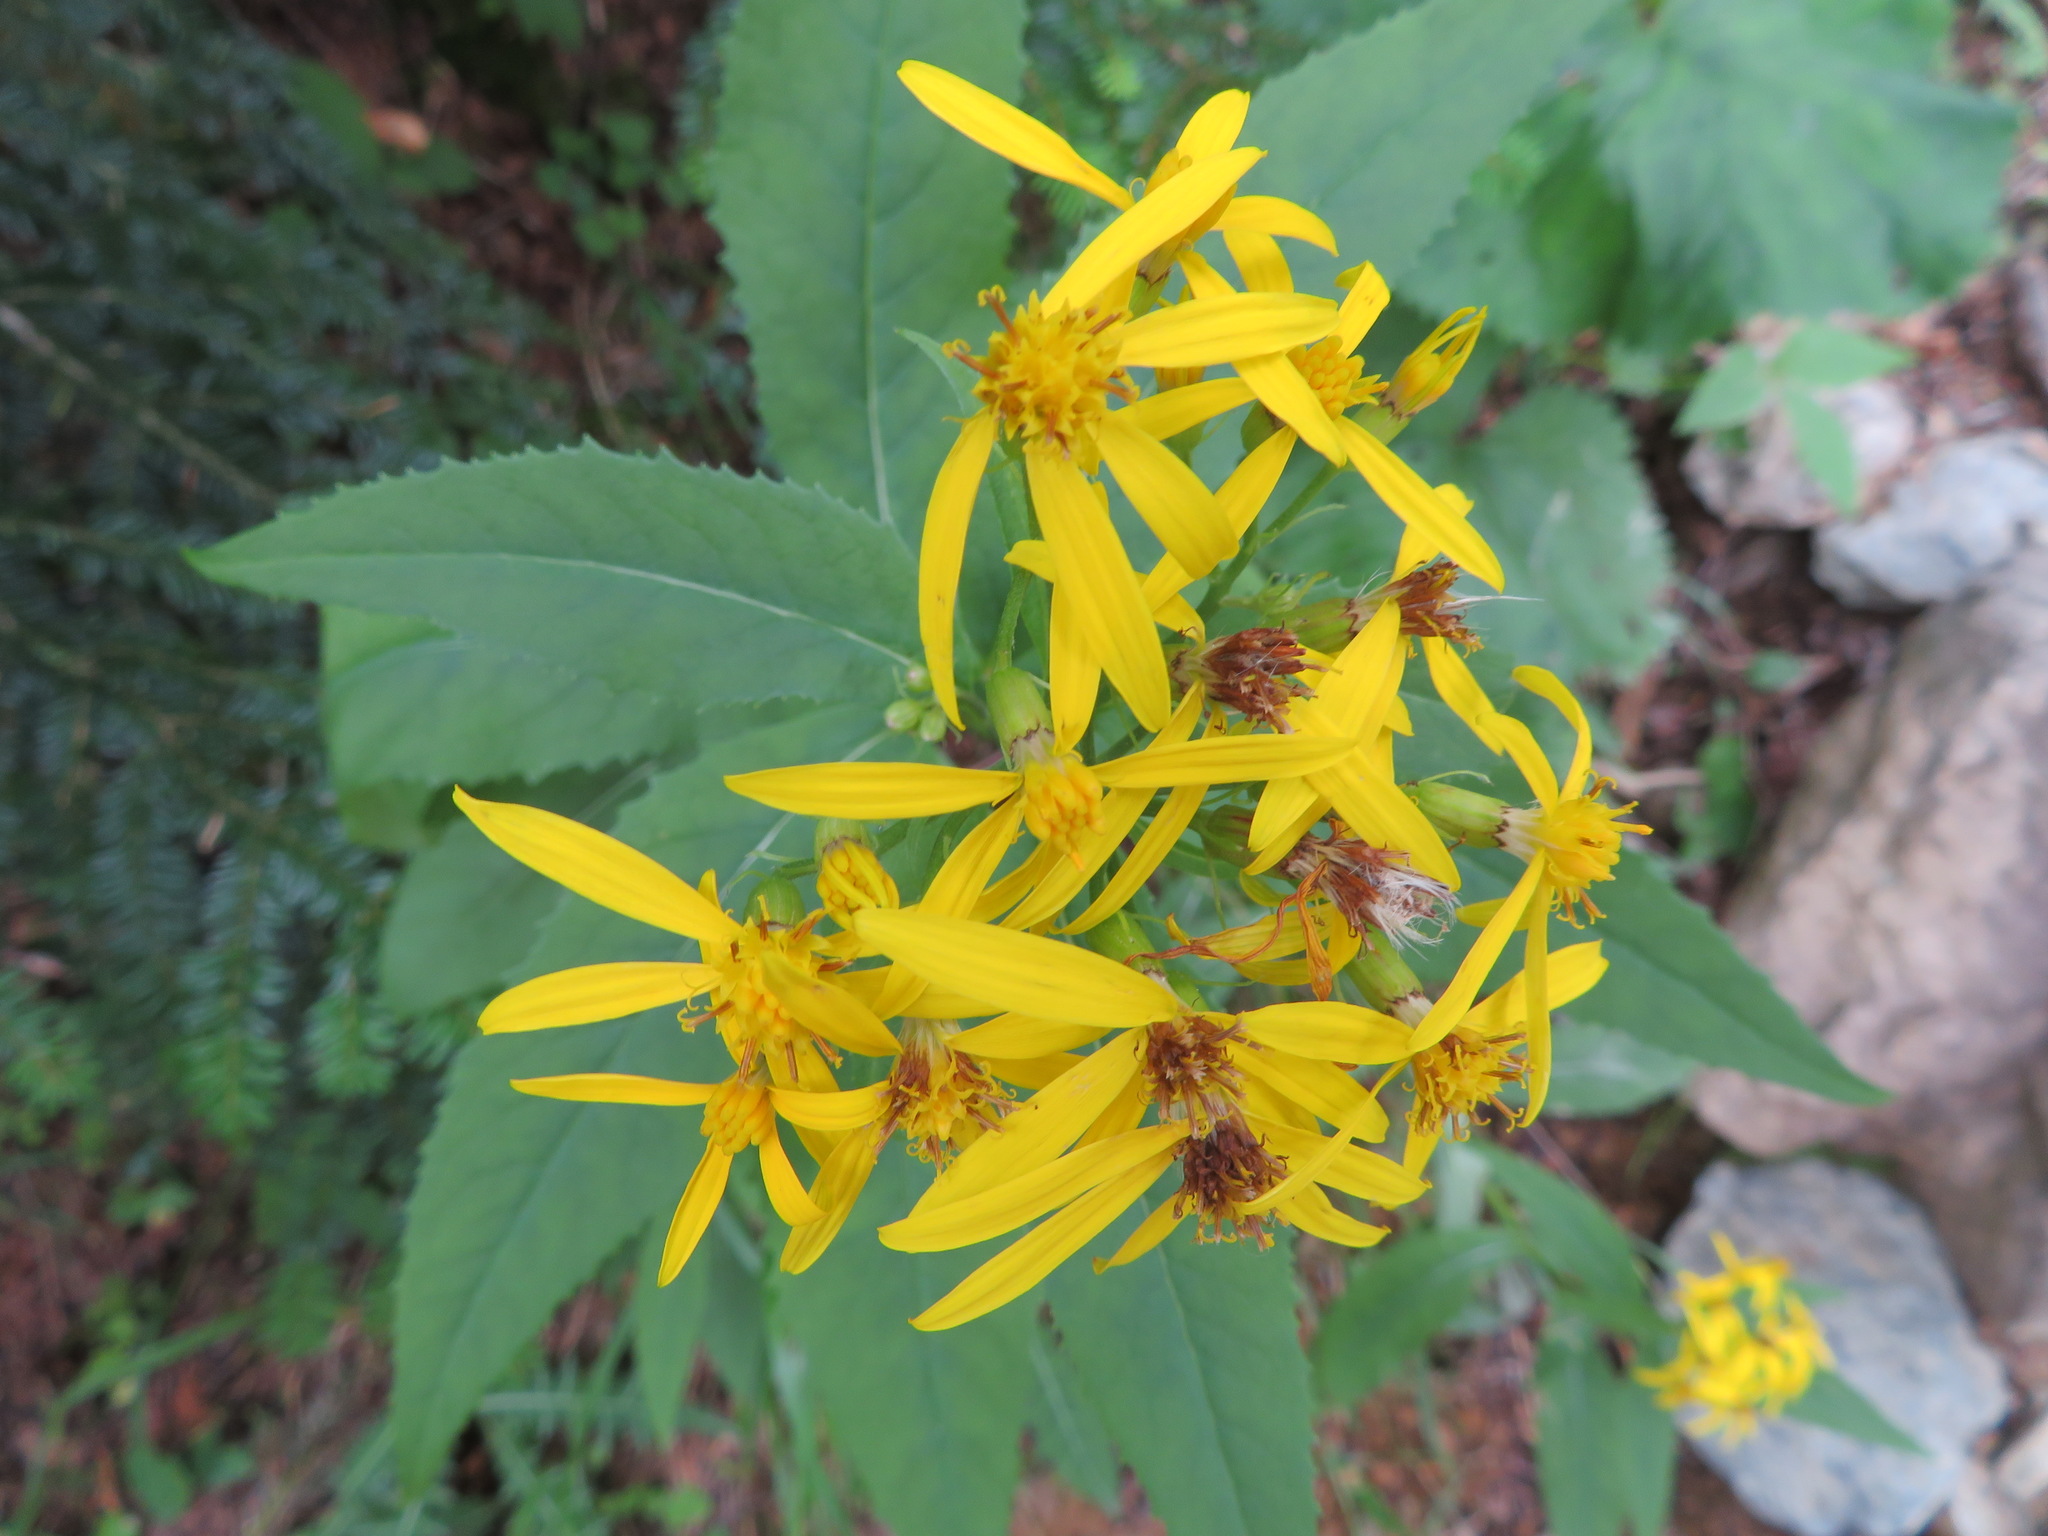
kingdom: Plantae
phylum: Tracheophyta
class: Magnoliopsida
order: Asterales
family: Asteraceae
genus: Senecio
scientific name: Senecio nemorensis
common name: Alpine ragwort
